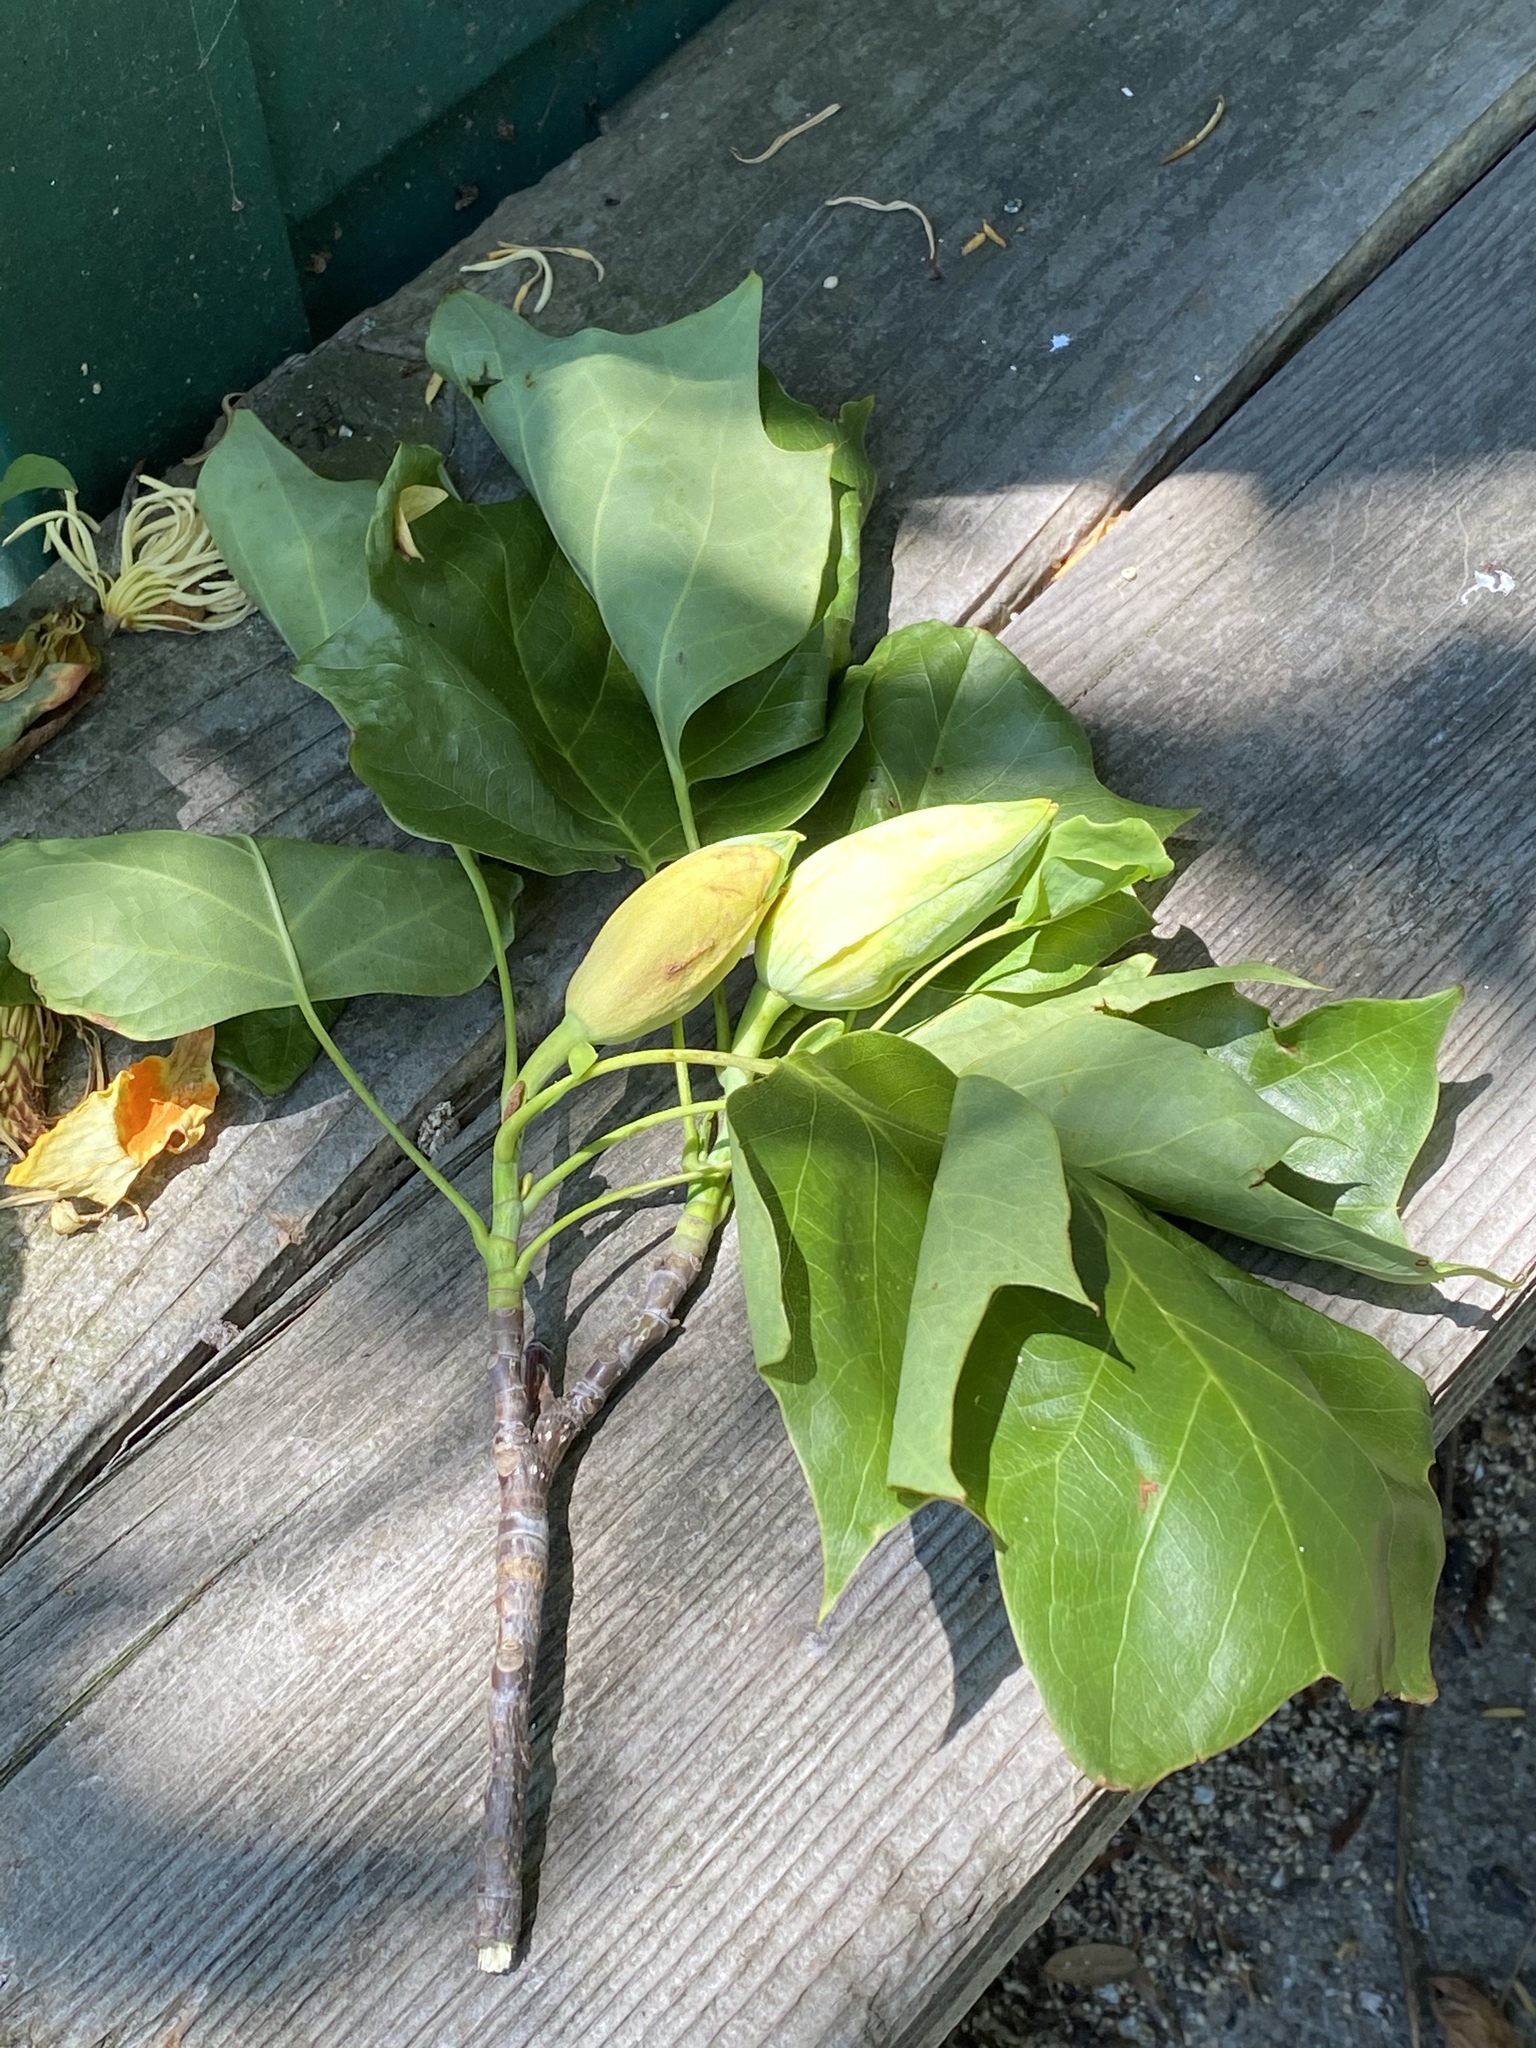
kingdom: Plantae
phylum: Tracheophyta
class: Magnoliopsida
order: Magnoliales
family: Magnoliaceae
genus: Liriodendron
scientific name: Liriodendron tulipifera
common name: Tulip tree
